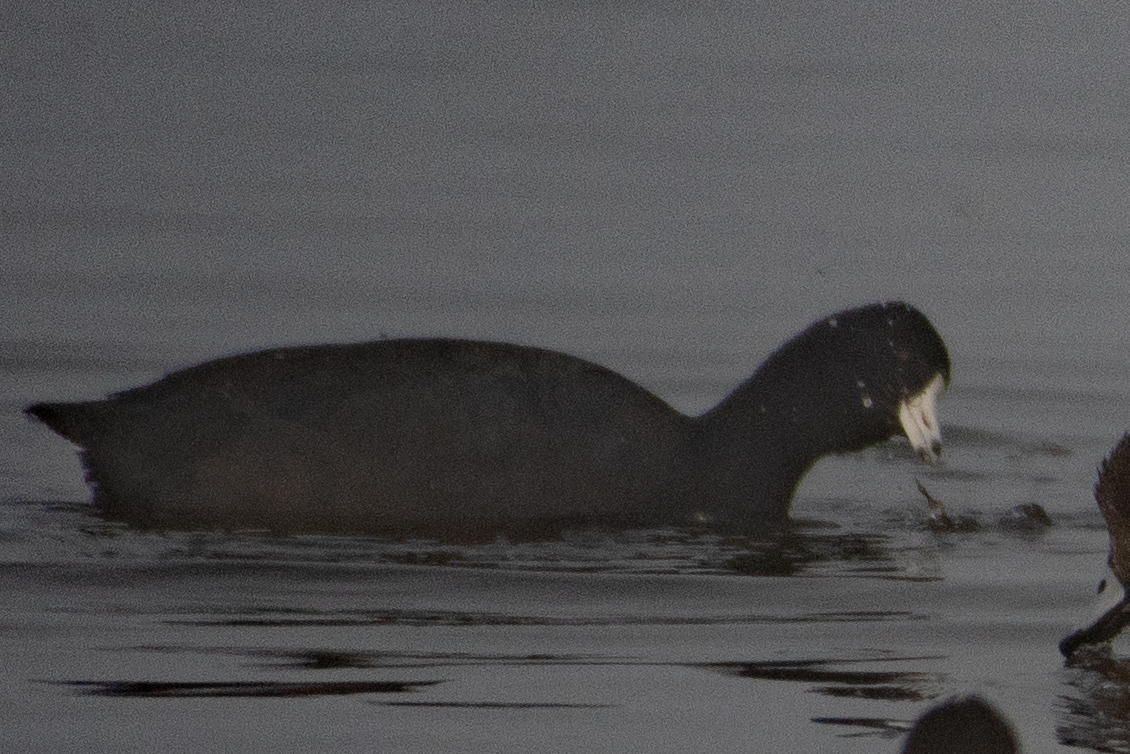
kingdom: Animalia
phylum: Chordata
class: Aves
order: Gruiformes
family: Rallidae
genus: Fulica
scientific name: Fulica americana
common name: American coot
